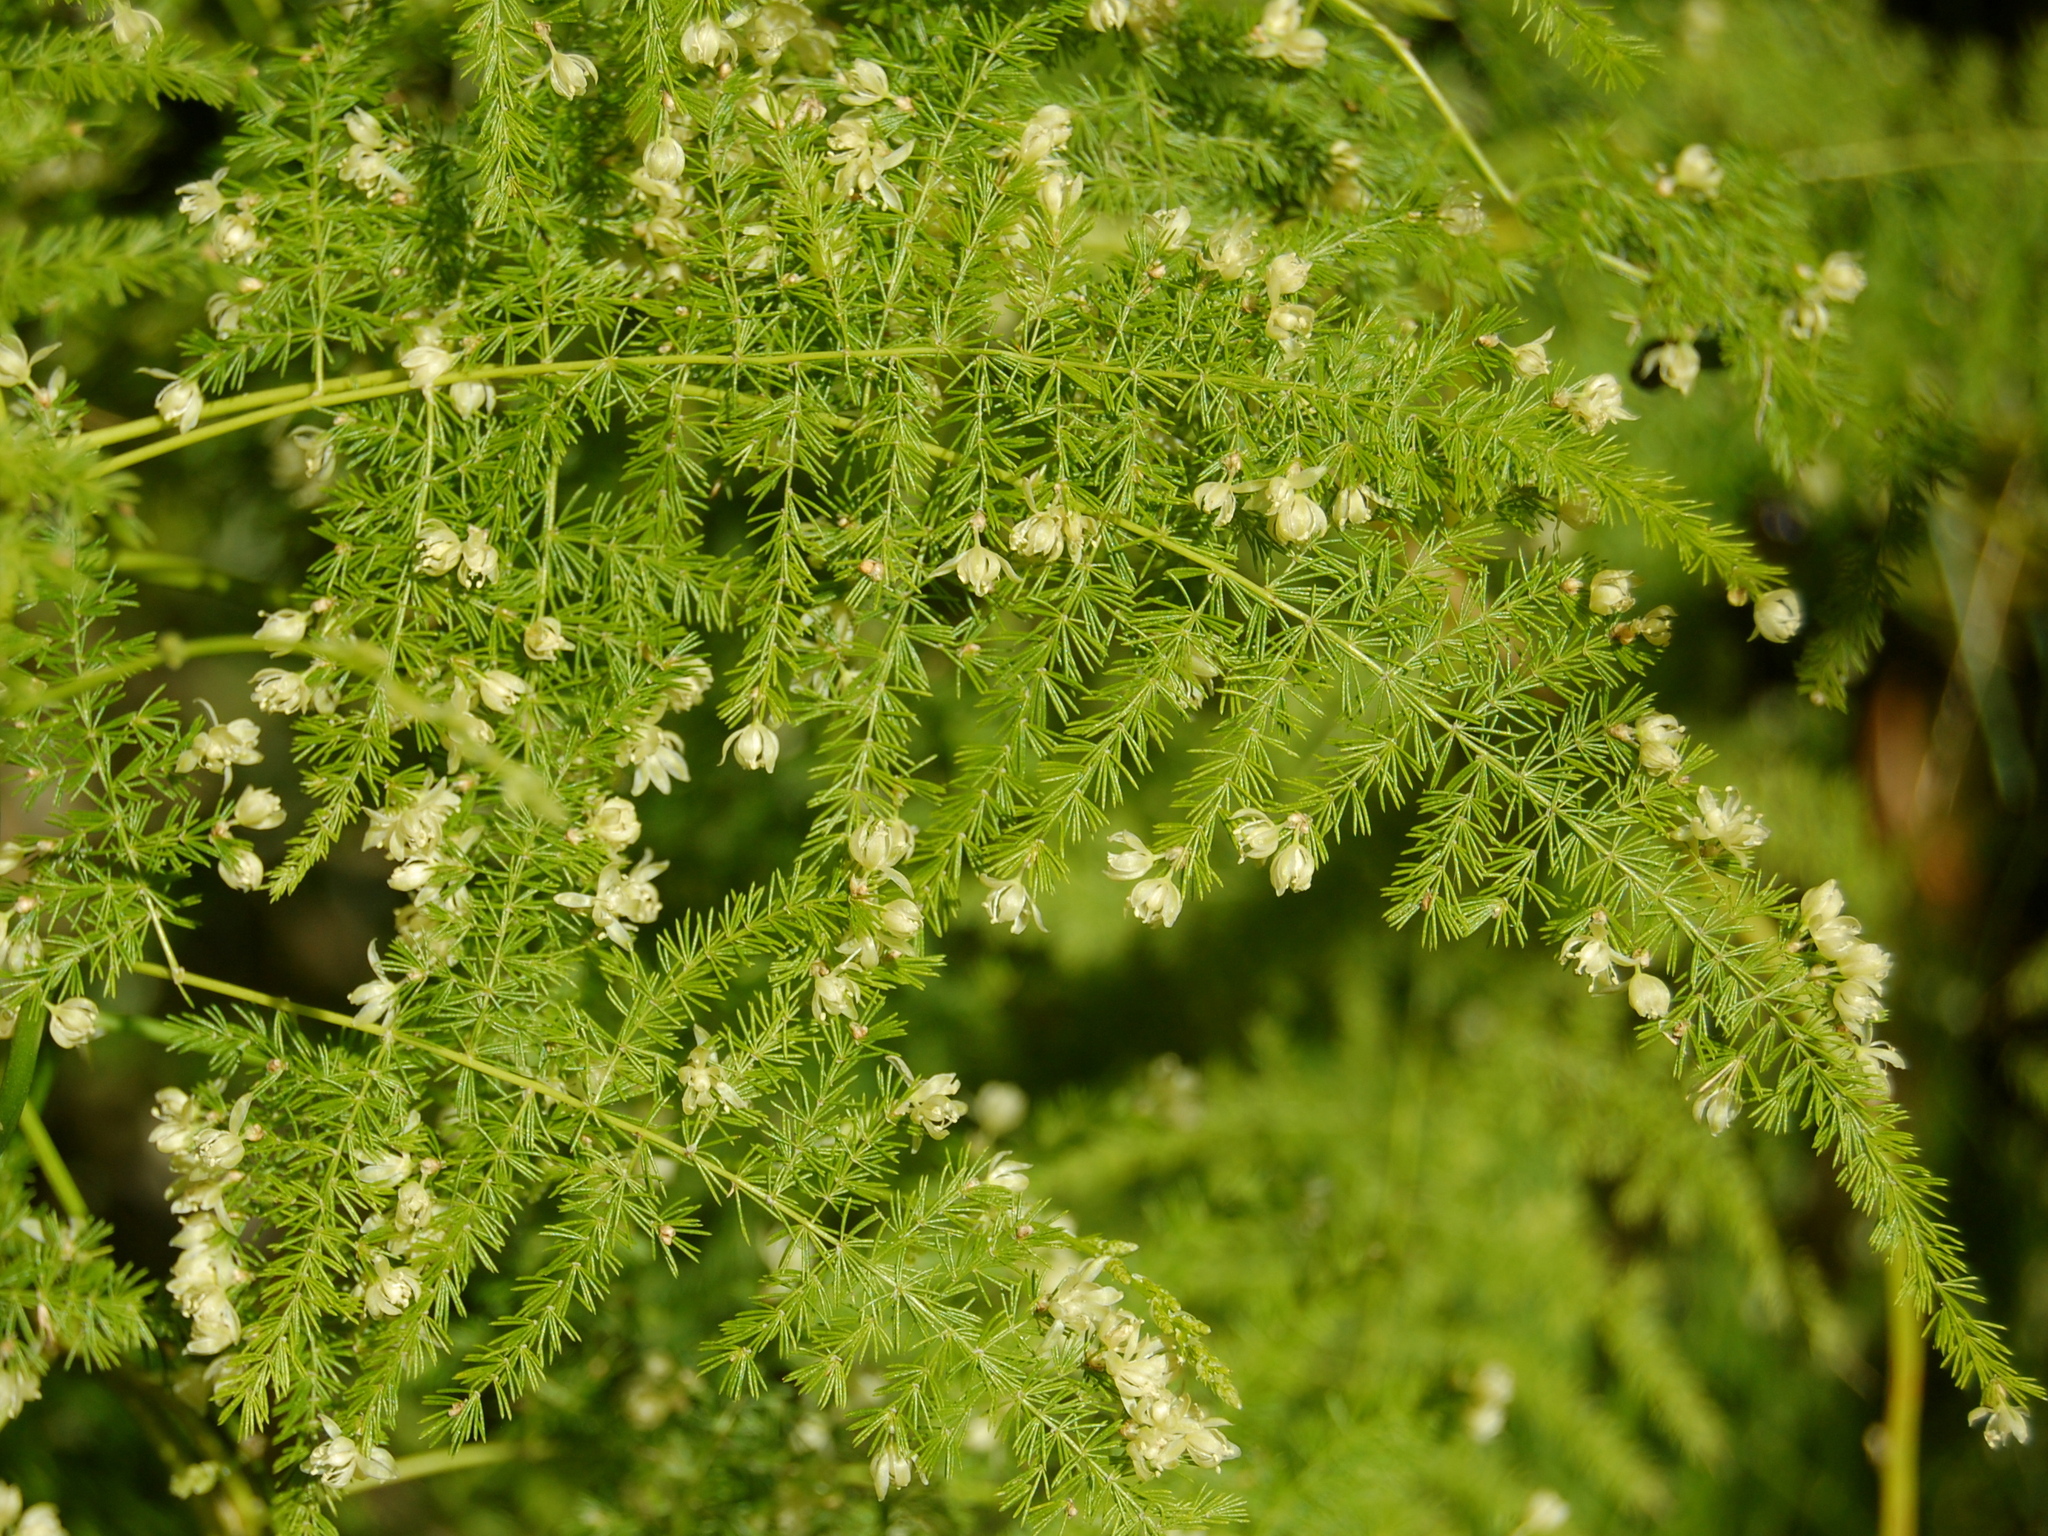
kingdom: Plantae
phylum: Tracheophyta
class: Liliopsida
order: Asparagales
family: Asparagaceae
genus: Asparagus
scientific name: Asparagus setaceus
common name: Common asparagus fern
